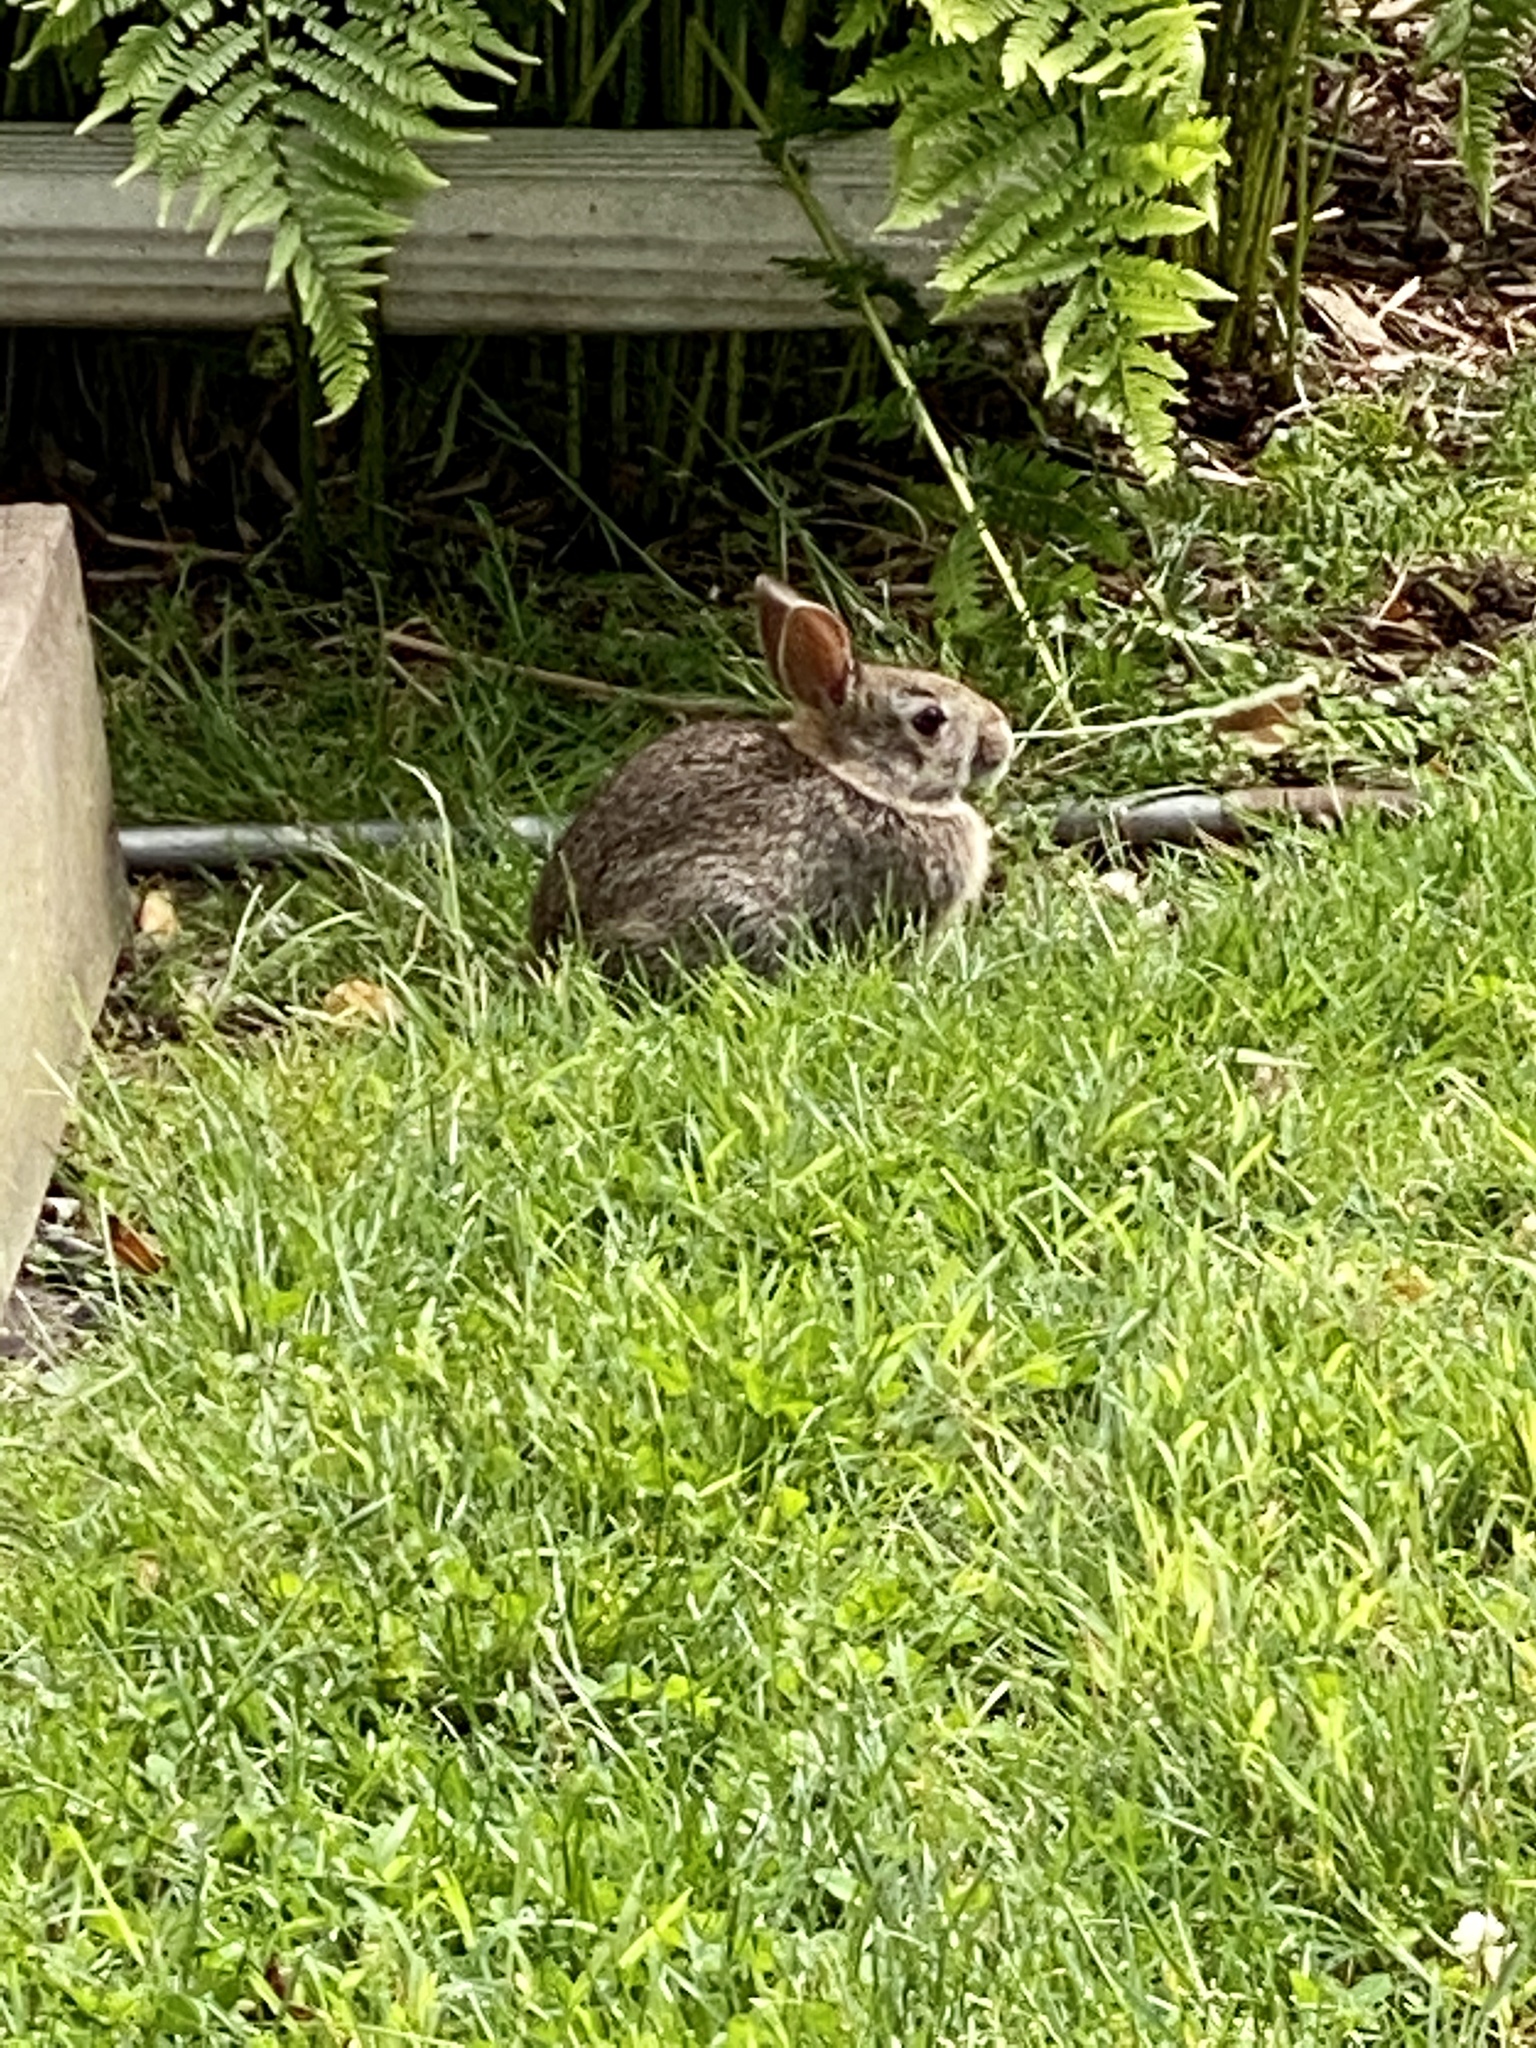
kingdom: Animalia
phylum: Chordata
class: Mammalia
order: Lagomorpha
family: Leporidae
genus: Sylvilagus
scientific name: Sylvilagus floridanus
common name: Eastern cottontail
